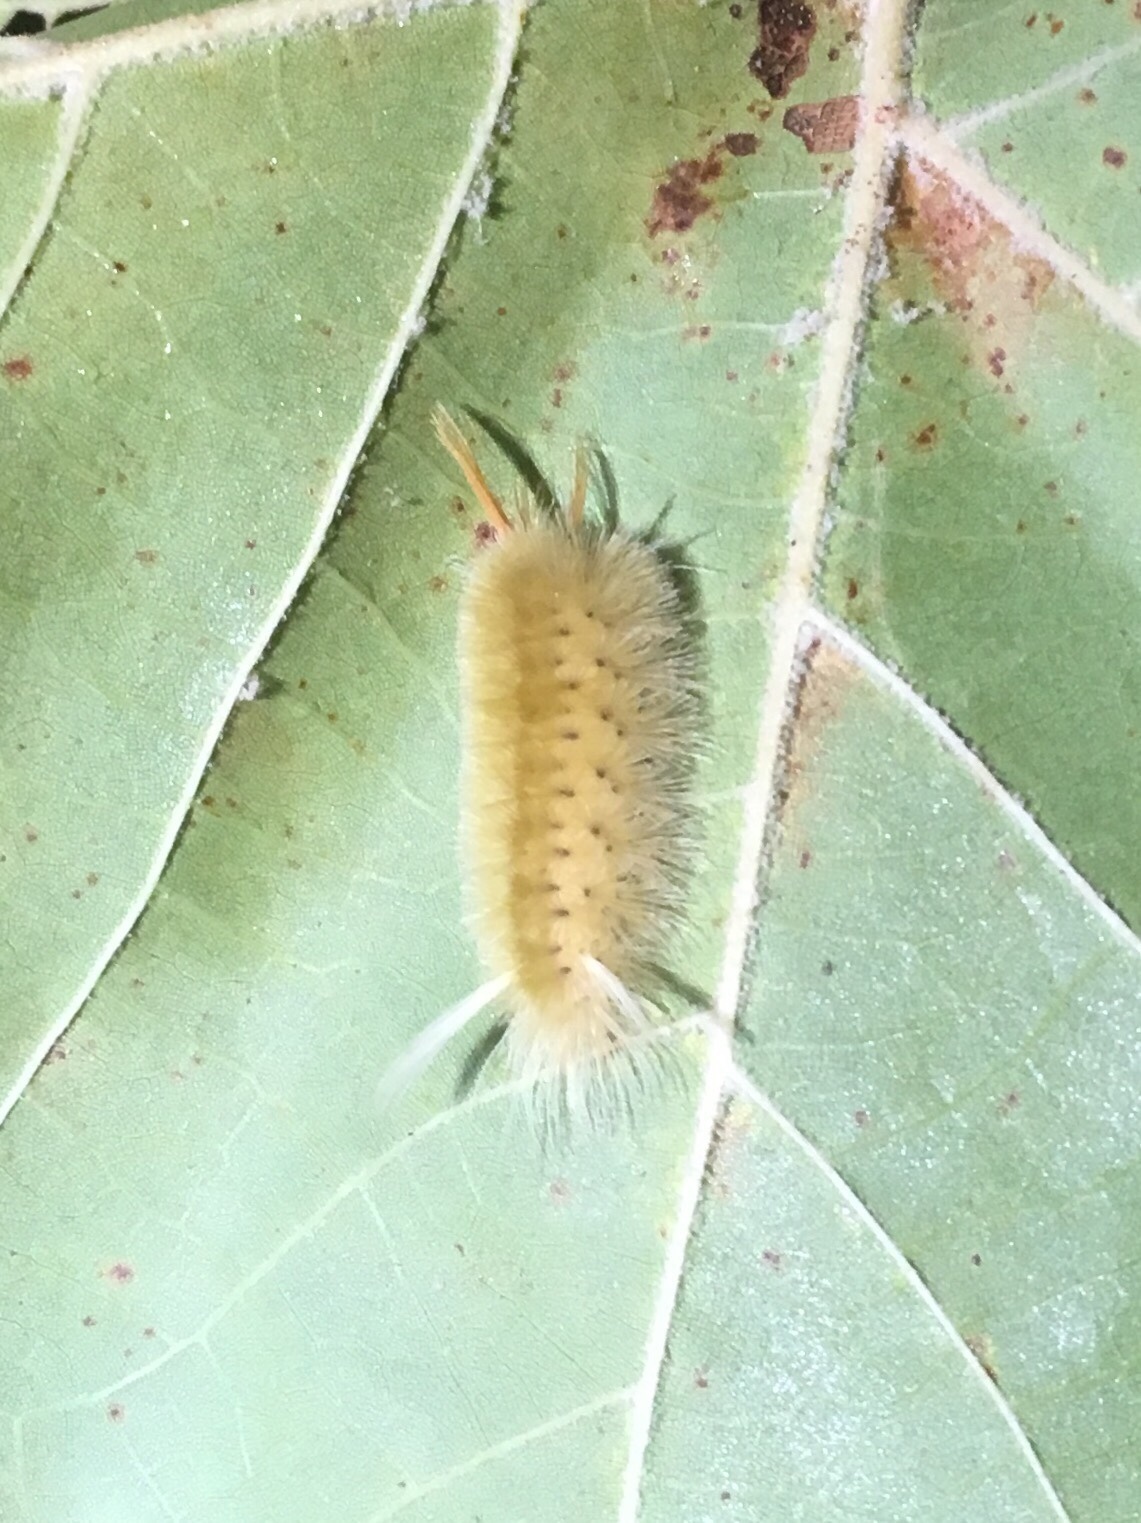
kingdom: Animalia
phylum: Arthropoda
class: Insecta
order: Lepidoptera
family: Erebidae
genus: Halysidota
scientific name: Halysidota harrisii
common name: Sycamore tussock moth
